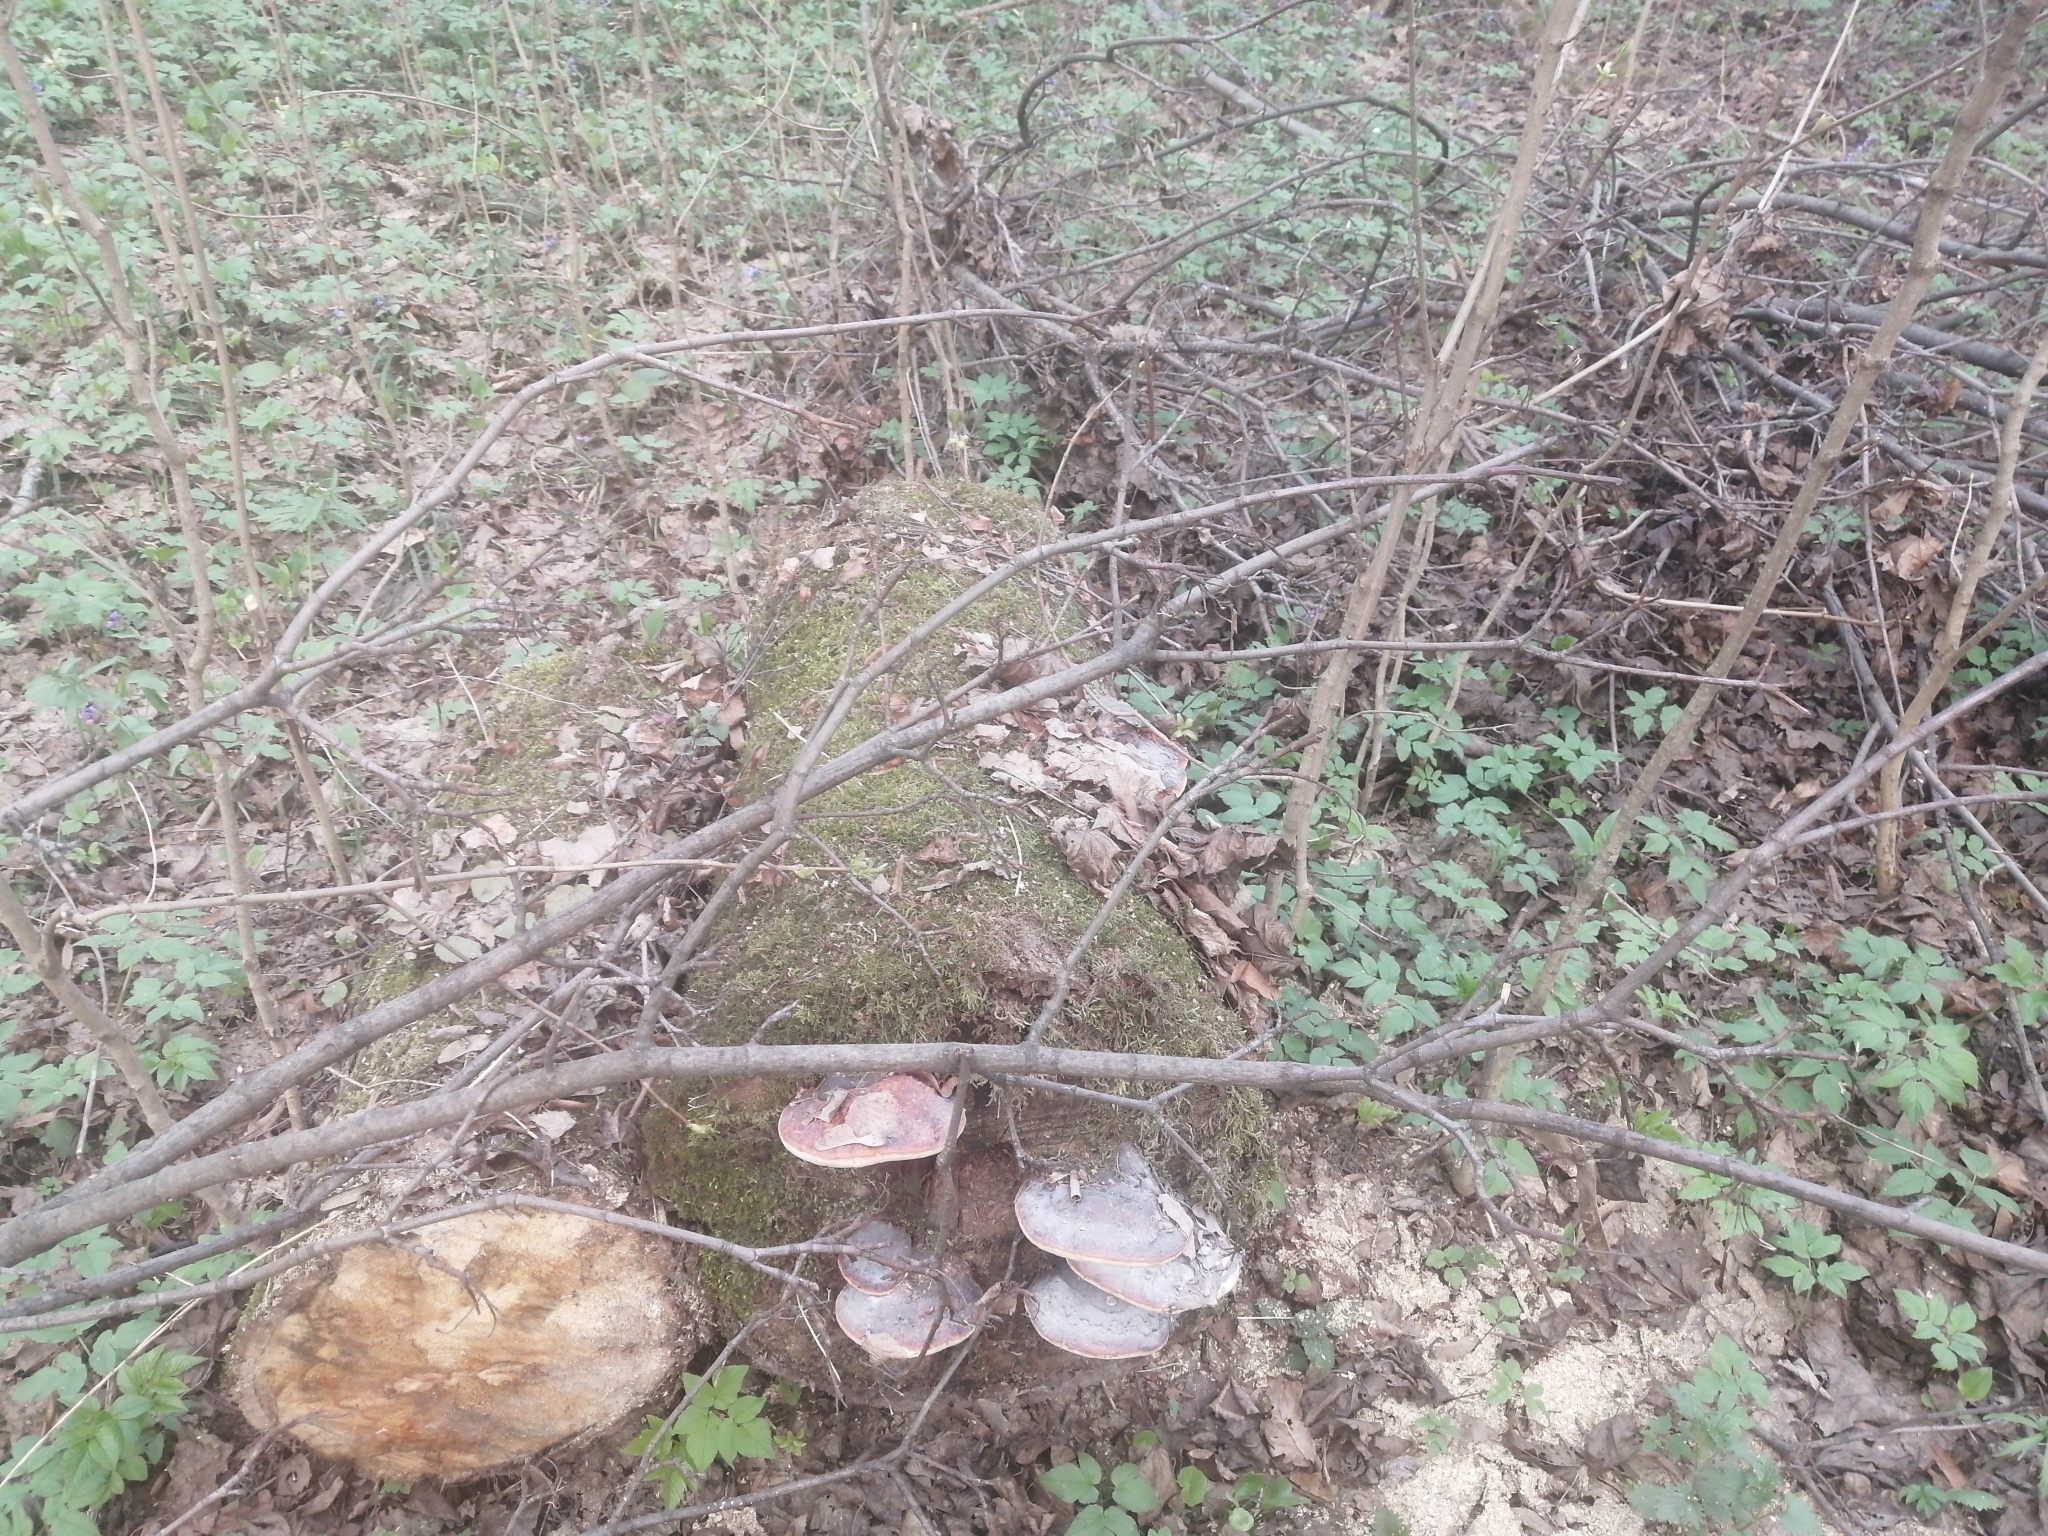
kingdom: Fungi
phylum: Basidiomycota
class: Agaricomycetes
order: Polyporales
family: Fomitopsidaceae
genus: Fomitopsis
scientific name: Fomitopsis pinicola
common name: Red-belted bracket
